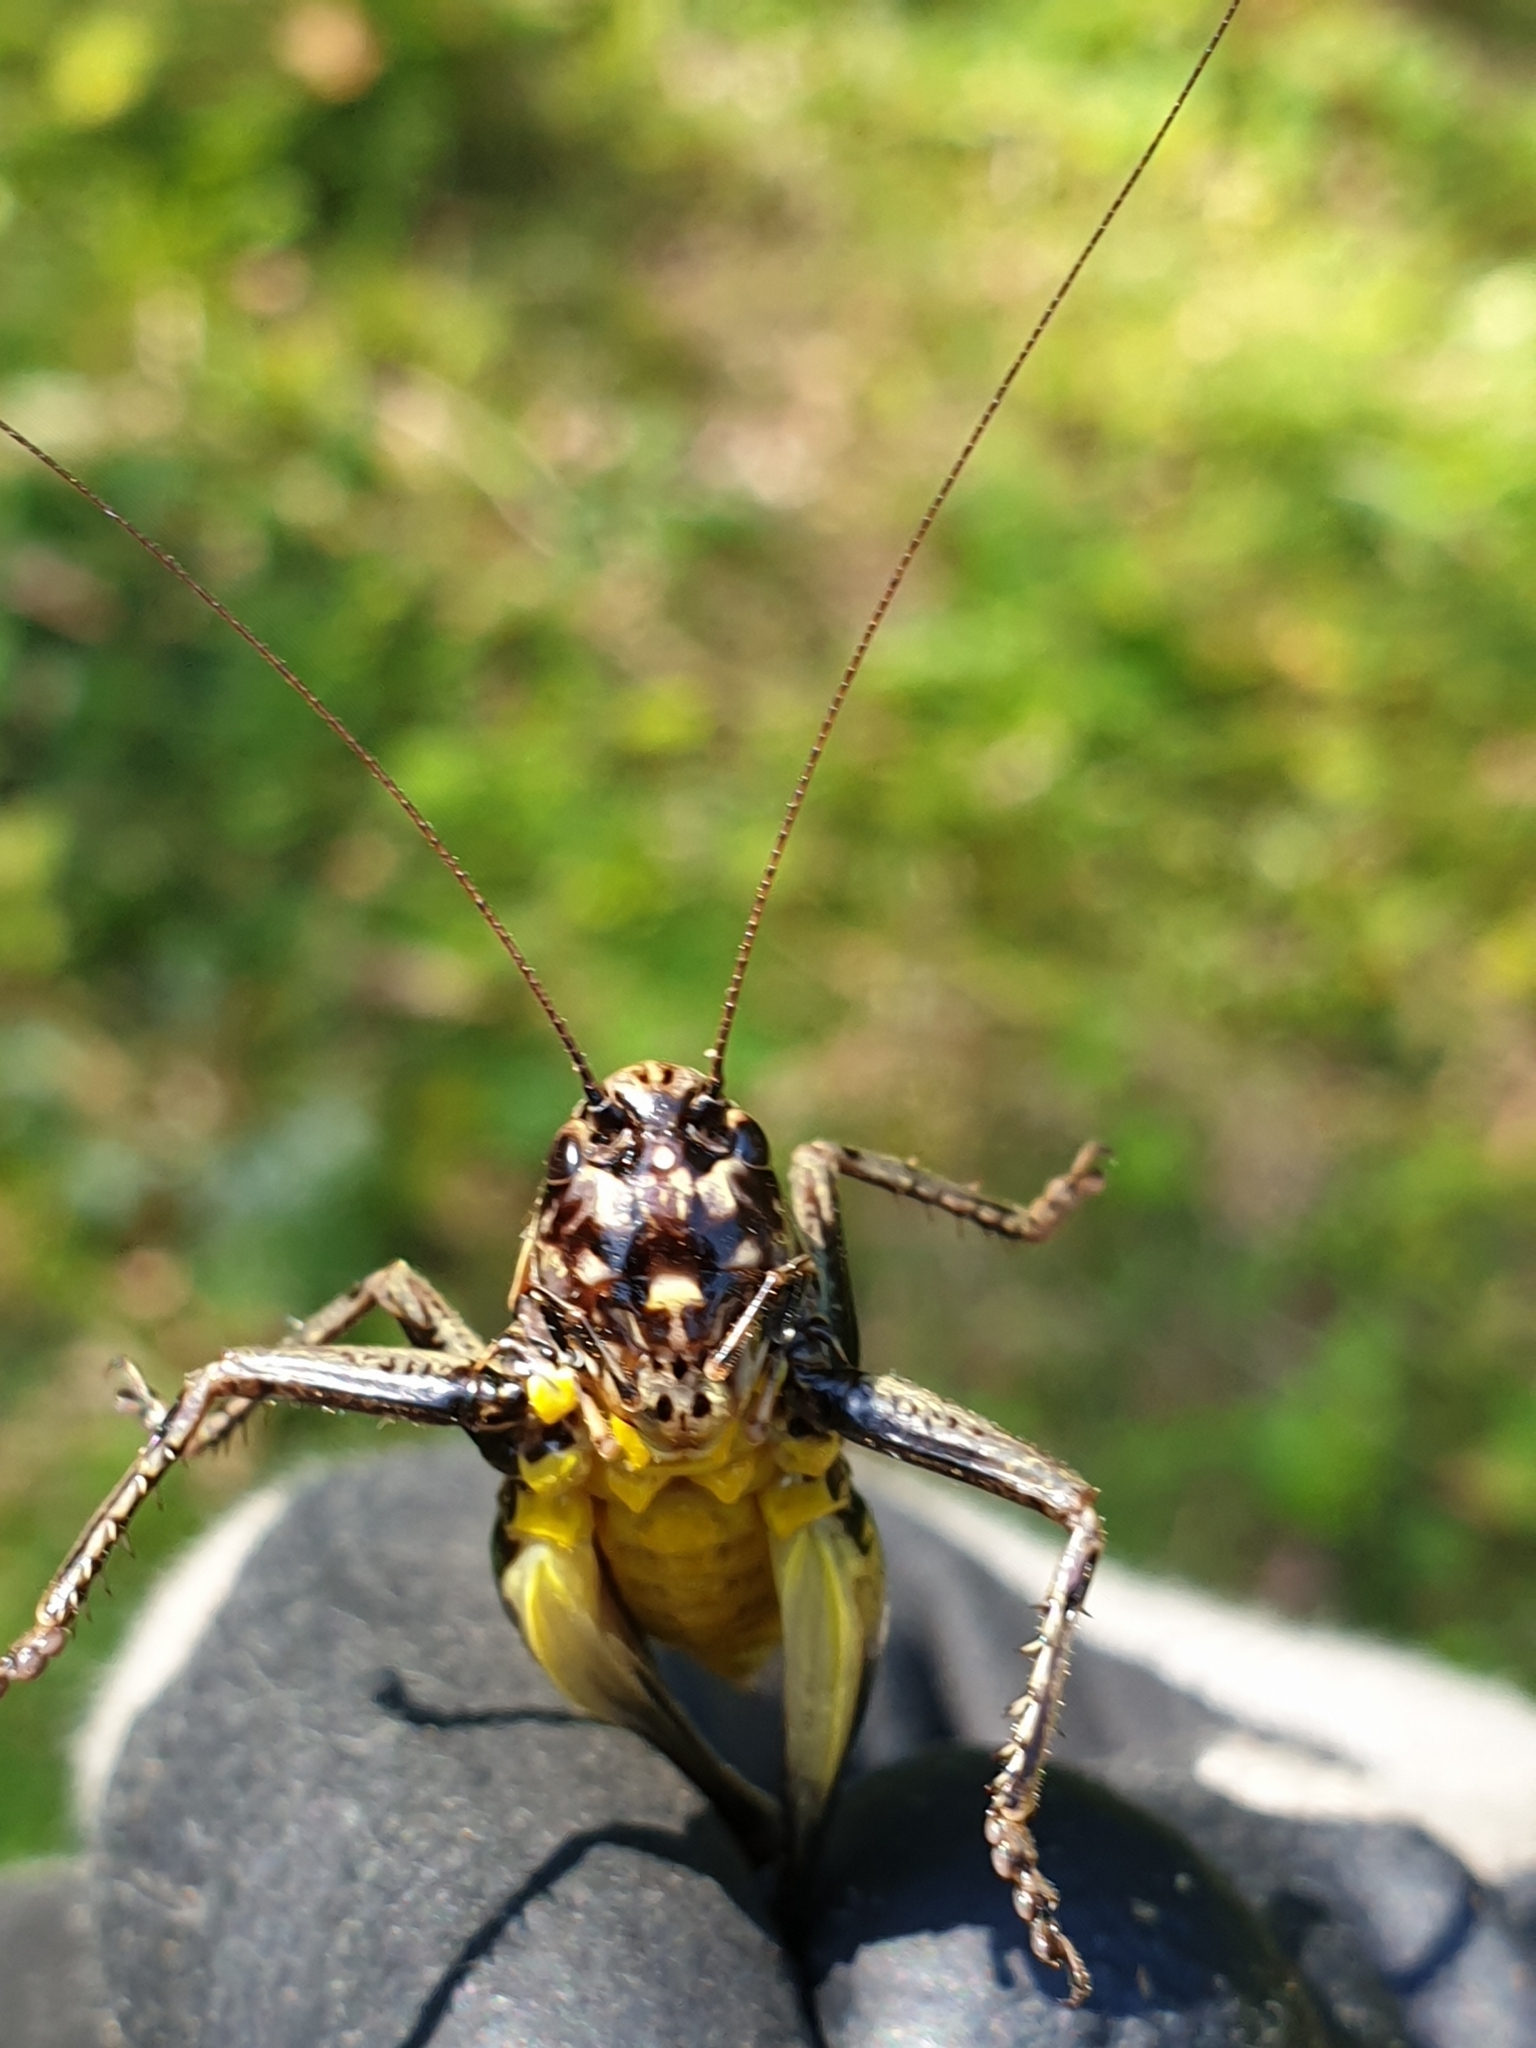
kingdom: Animalia
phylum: Arthropoda
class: Insecta
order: Orthoptera
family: Tettigoniidae
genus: Pholidoptera
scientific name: Pholidoptera aptera
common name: Alpine dark bush-cricket
